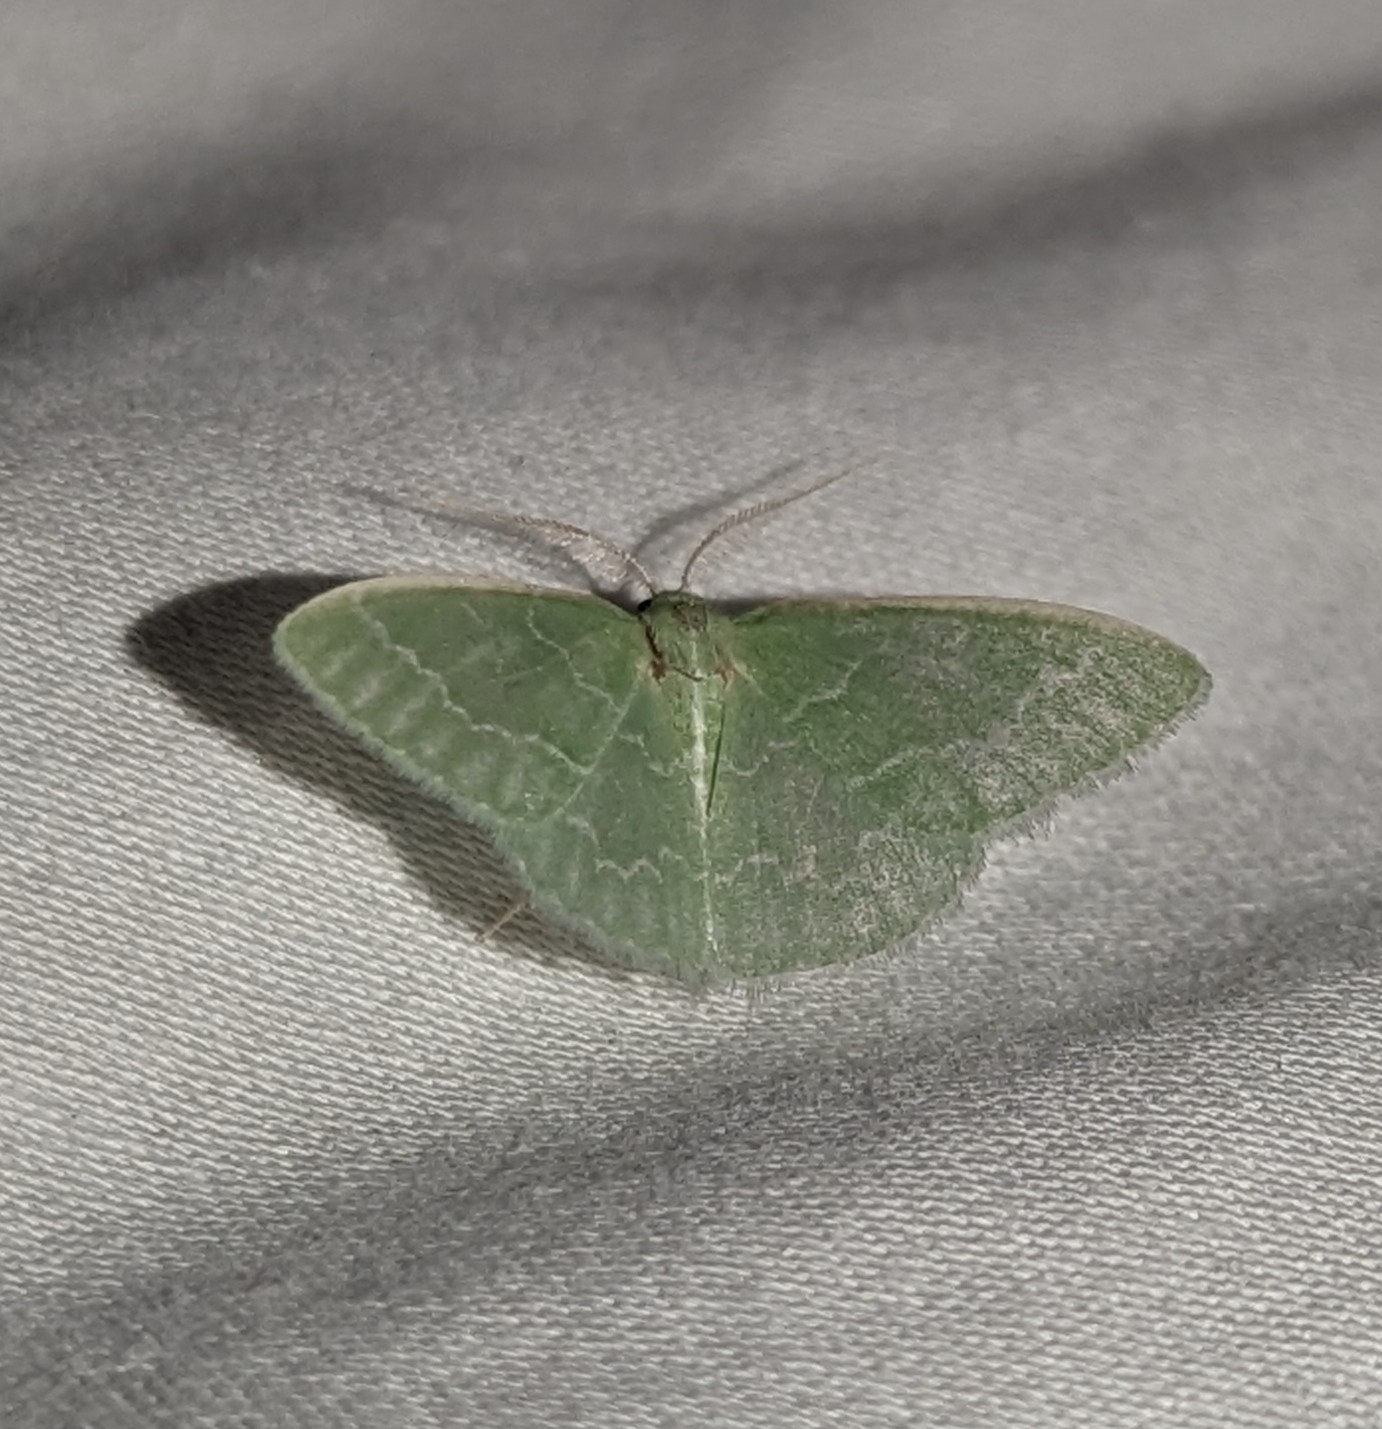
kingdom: Animalia
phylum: Arthropoda
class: Insecta
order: Lepidoptera
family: Geometridae
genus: Synchlora
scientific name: Synchlora aerata
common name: Wavy-lined emerald
